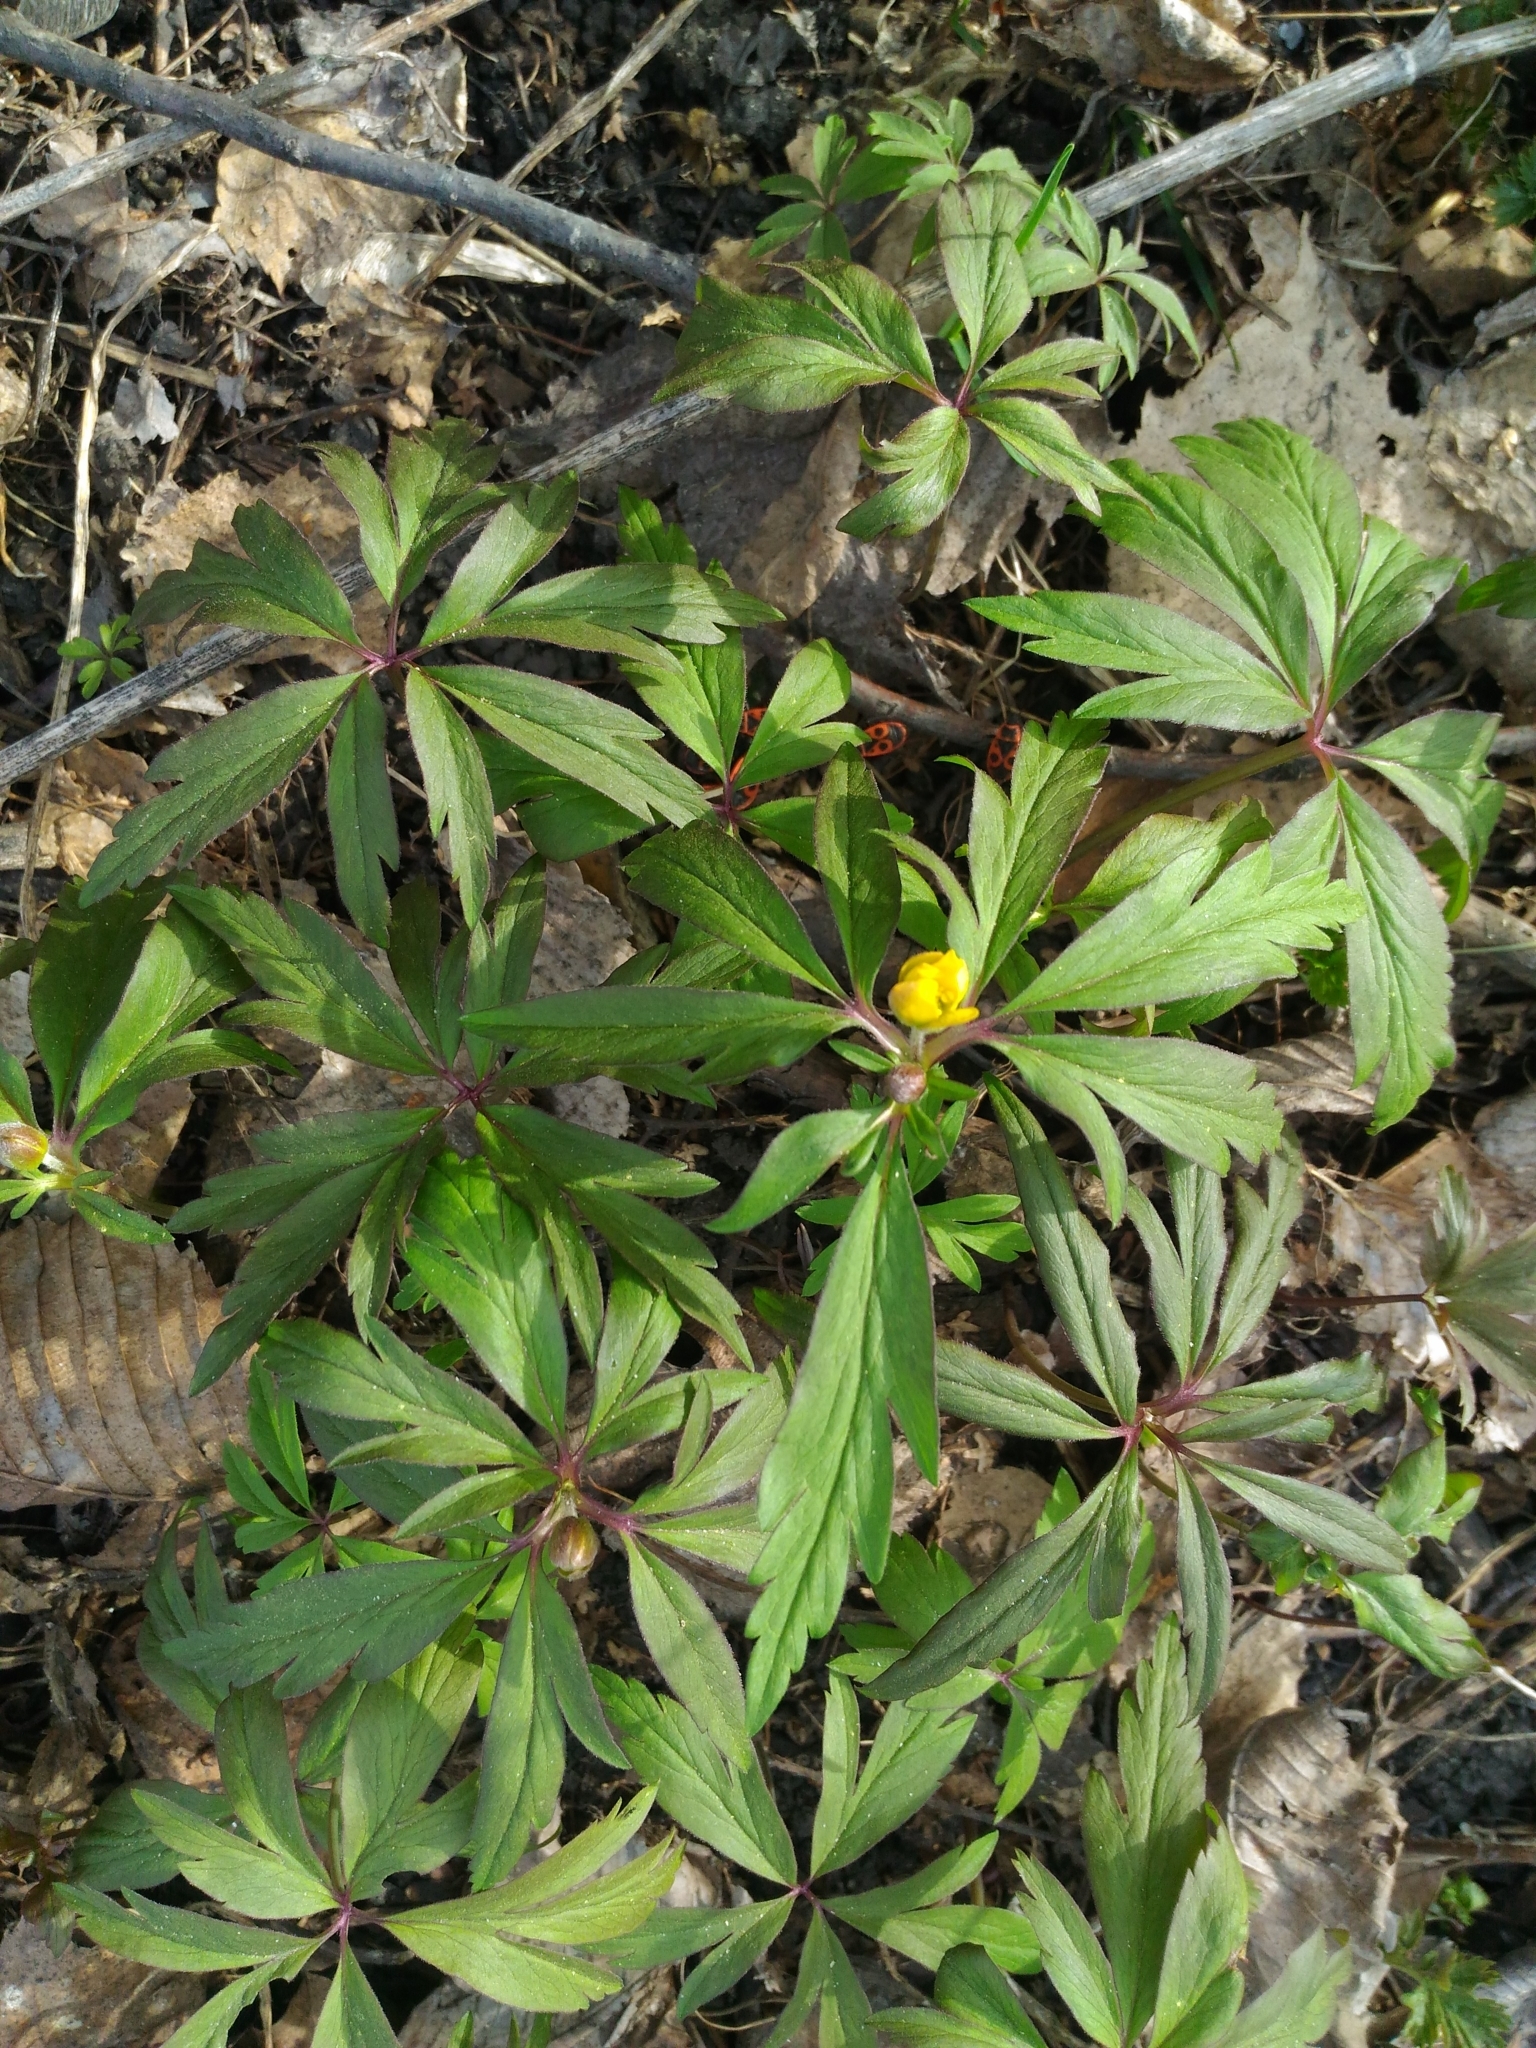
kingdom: Plantae
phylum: Tracheophyta
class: Magnoliopsida
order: Ranunculales
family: Ranunculaceae
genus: Anemone
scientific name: Anemone ranunculoides
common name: Yellow anemone
